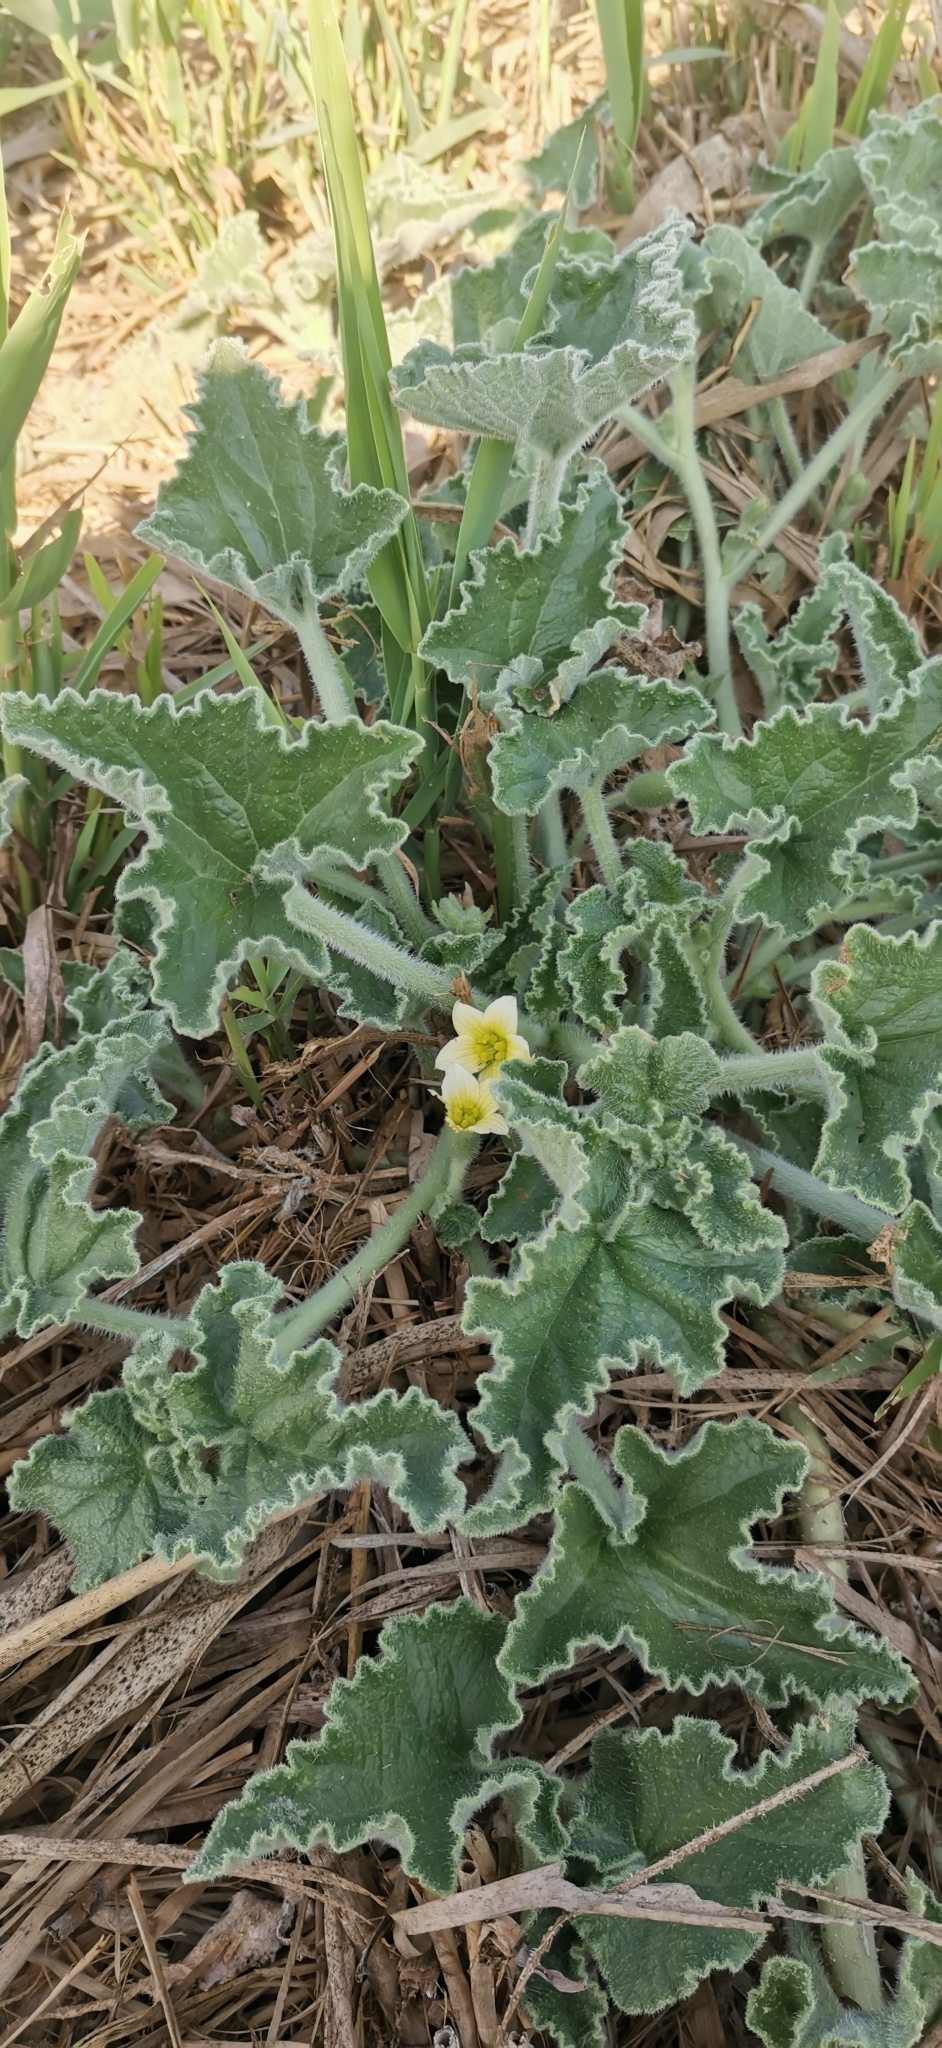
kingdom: Plantae
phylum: Tracheophyta
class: Magnoliopsida
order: Cucurbitales
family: Cucurbitaceae
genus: Ecballium
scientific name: Ecballium elaterium
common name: Squirting cucumber
